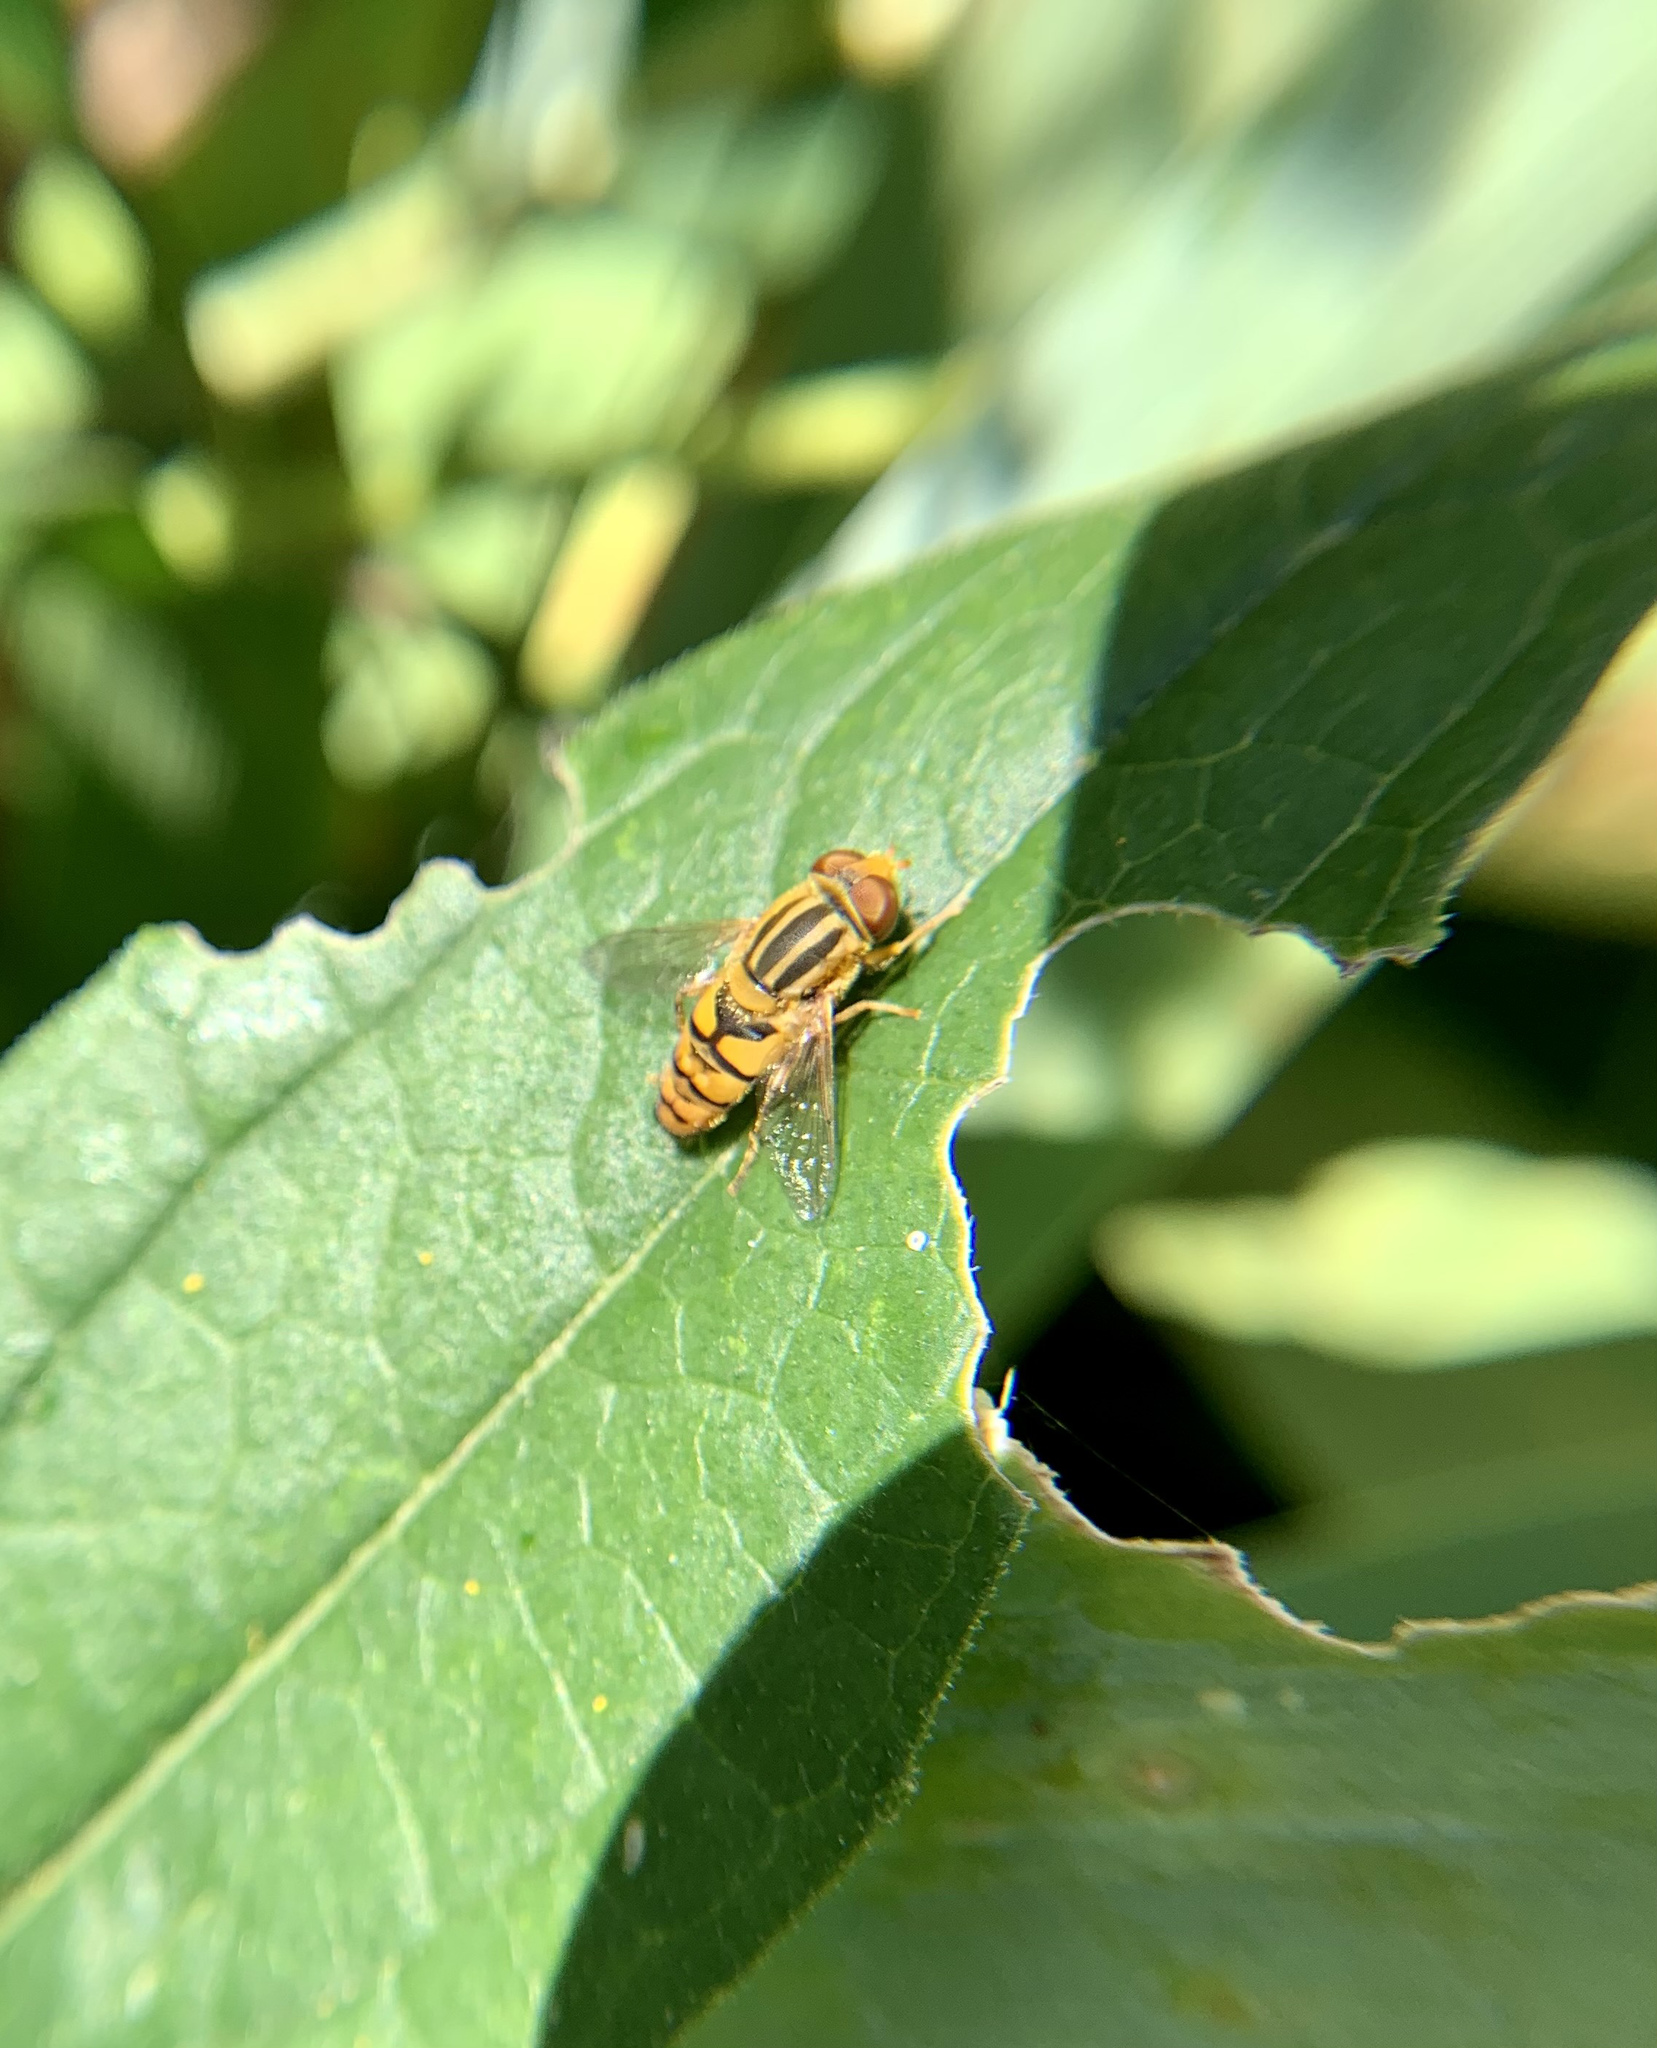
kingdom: Animalia
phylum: Arthropoda
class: Insecta
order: Diptera
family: Syrphidae
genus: Parhelophilus
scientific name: Parhelophilus integer
